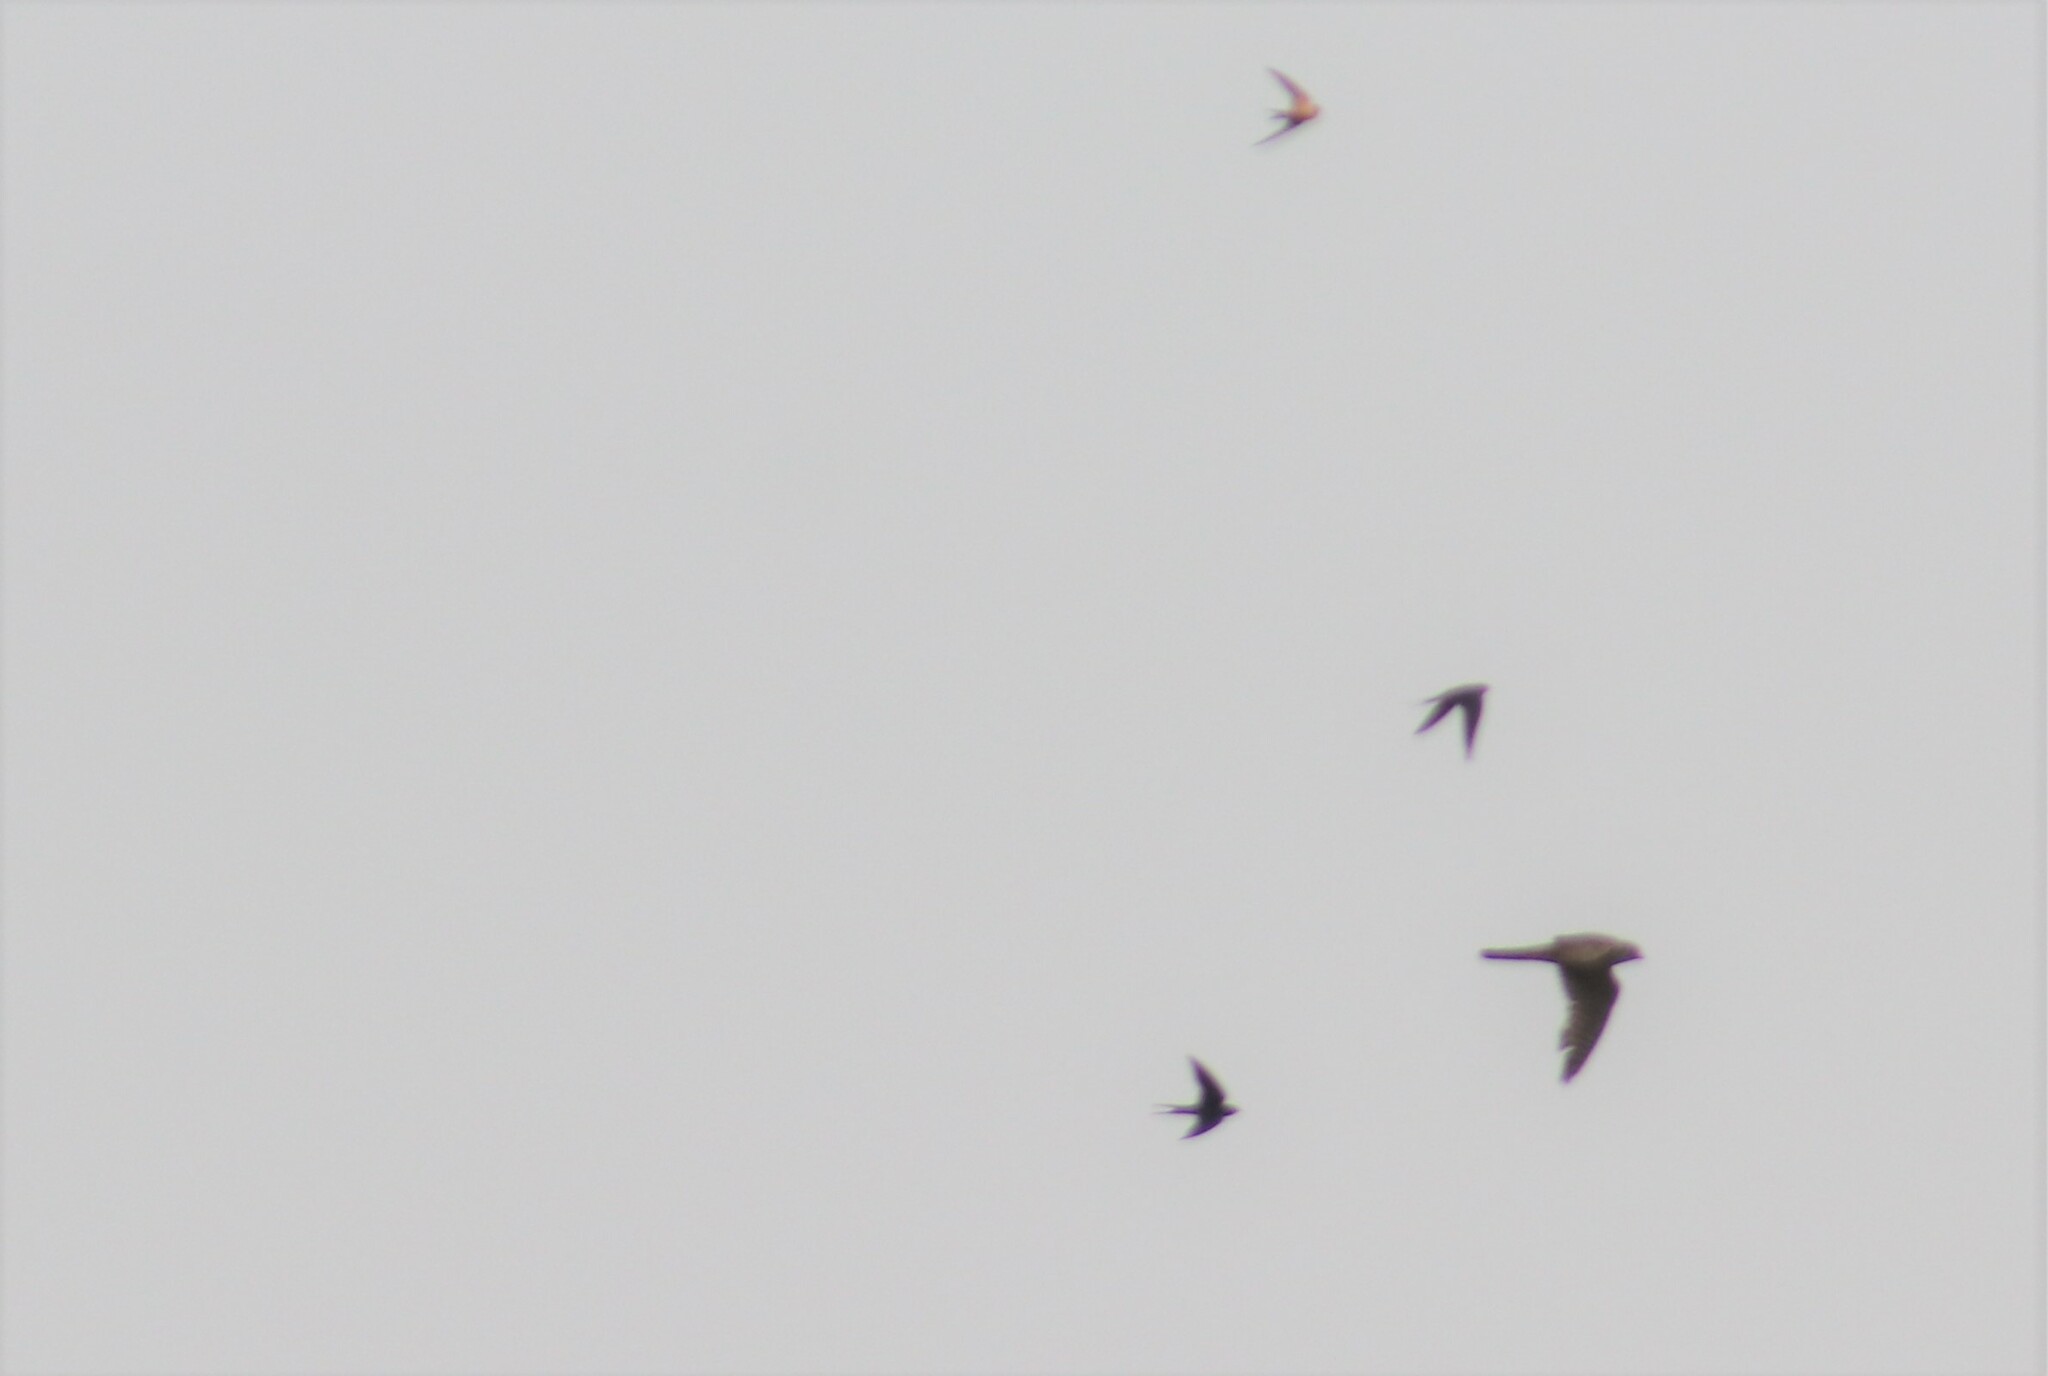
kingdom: Animalia
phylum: Chordata
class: Aves
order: Falconiformes
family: Falconidae
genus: Falco
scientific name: Falco columbarius
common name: Merlin
